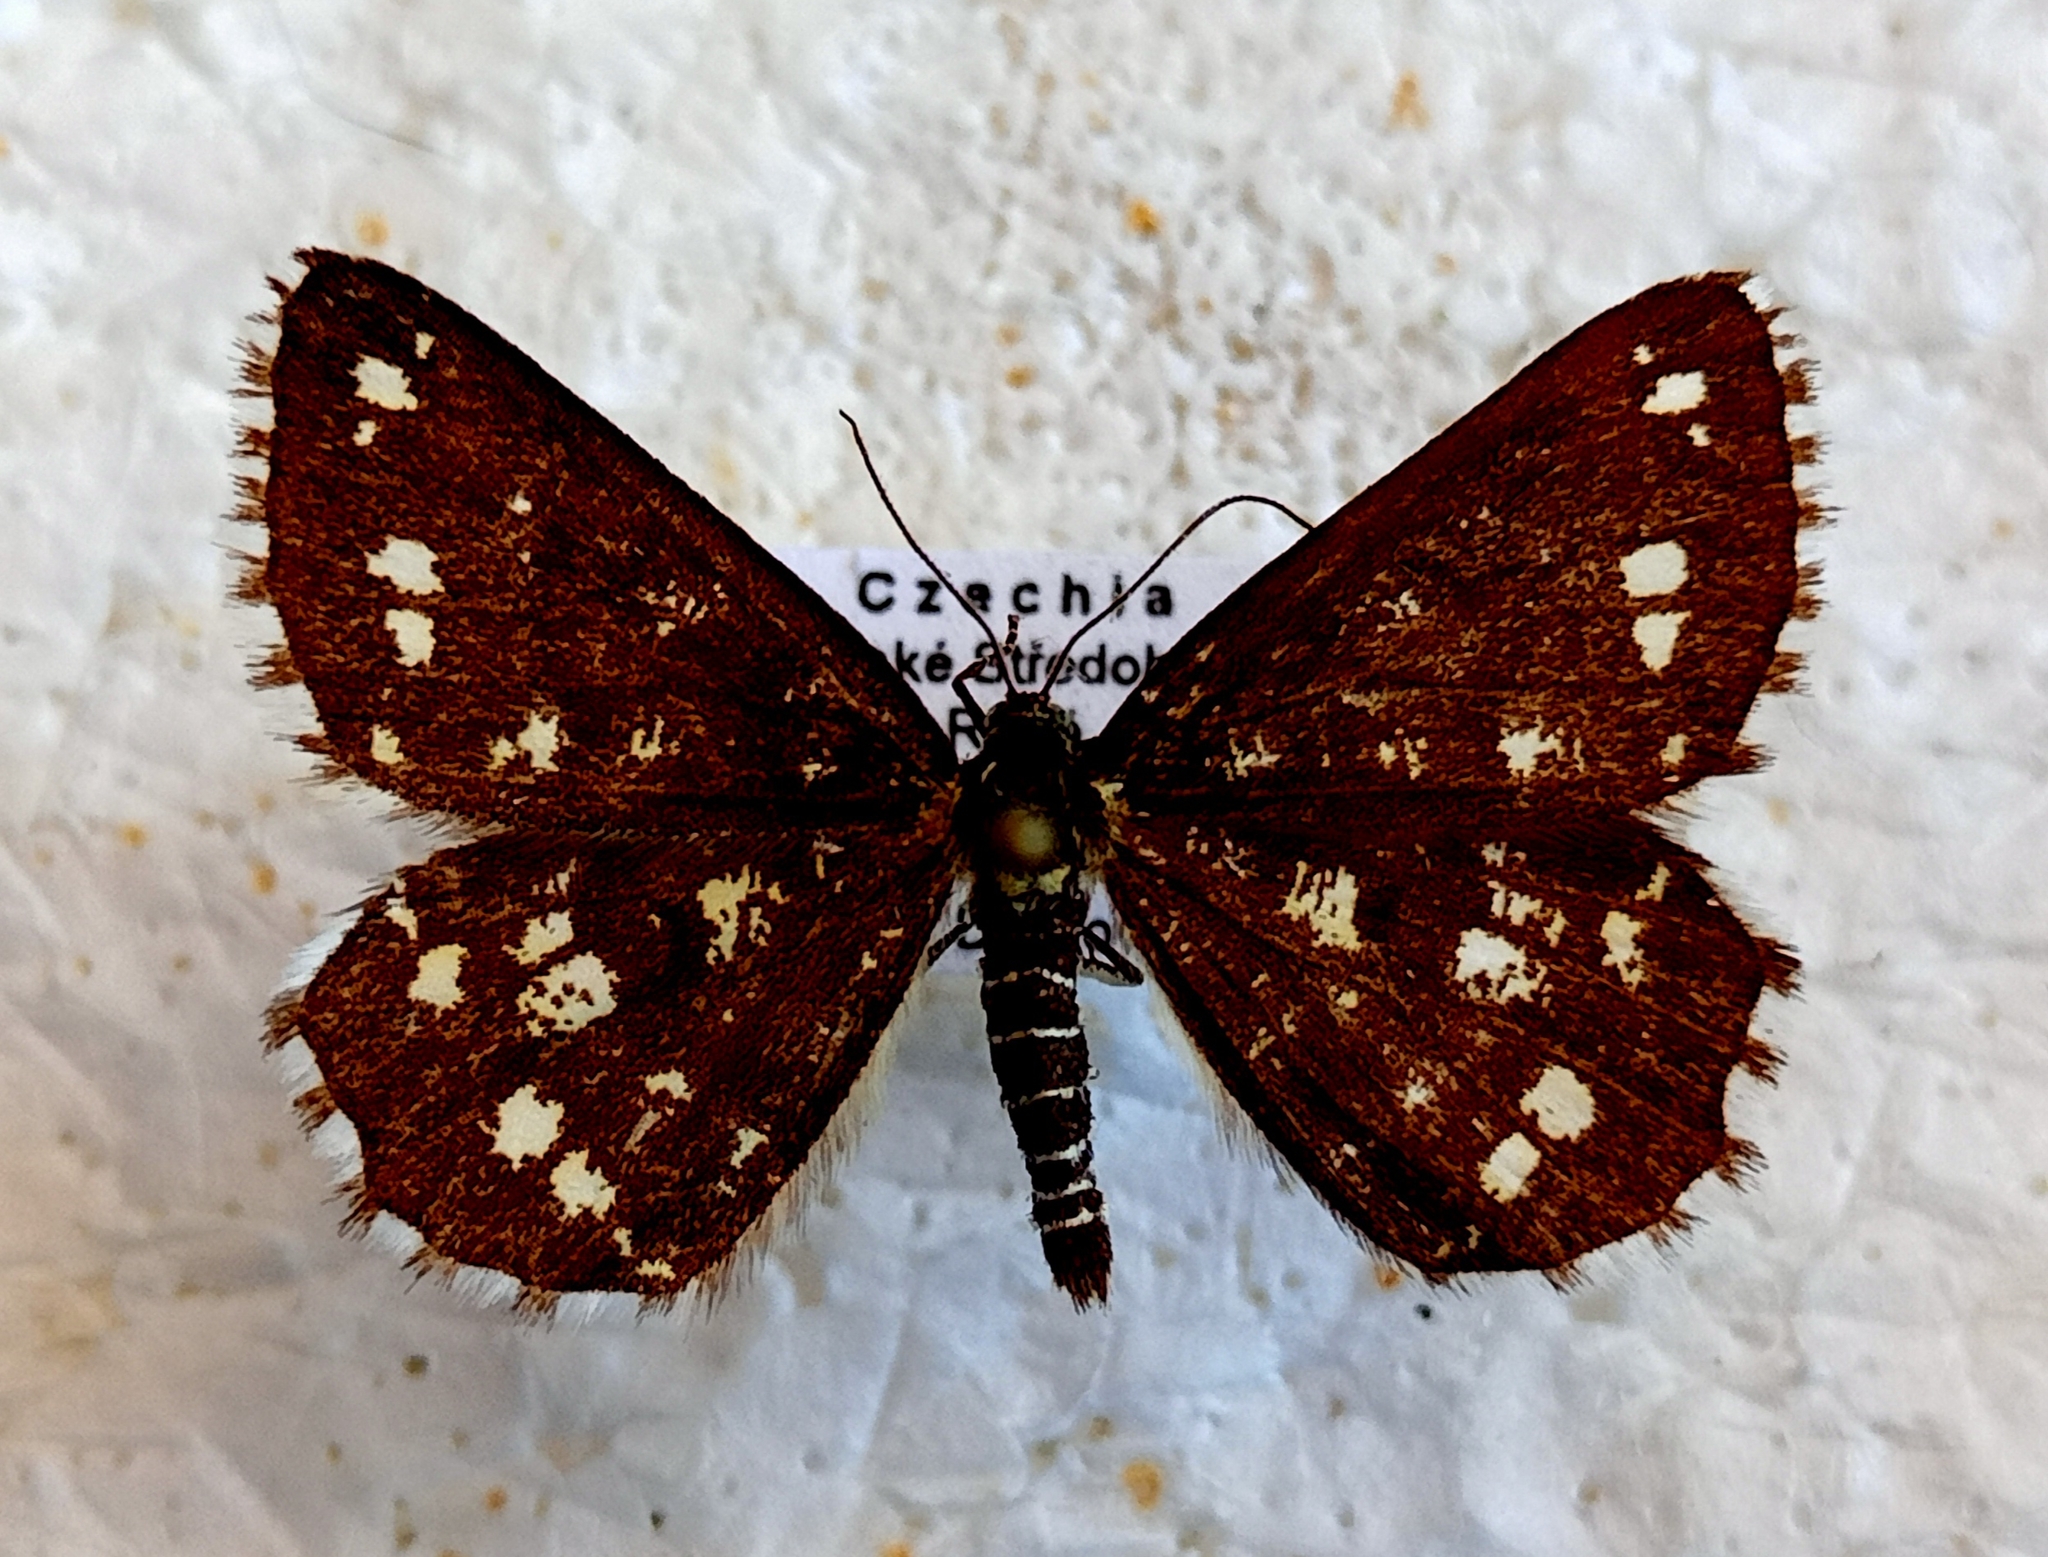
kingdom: Animalia
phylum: Arthropoda
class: Insecta
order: Lepidoptera
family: Geometridae
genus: Chiasmia
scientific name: Chiasmia clathrata
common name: Latticed heath
